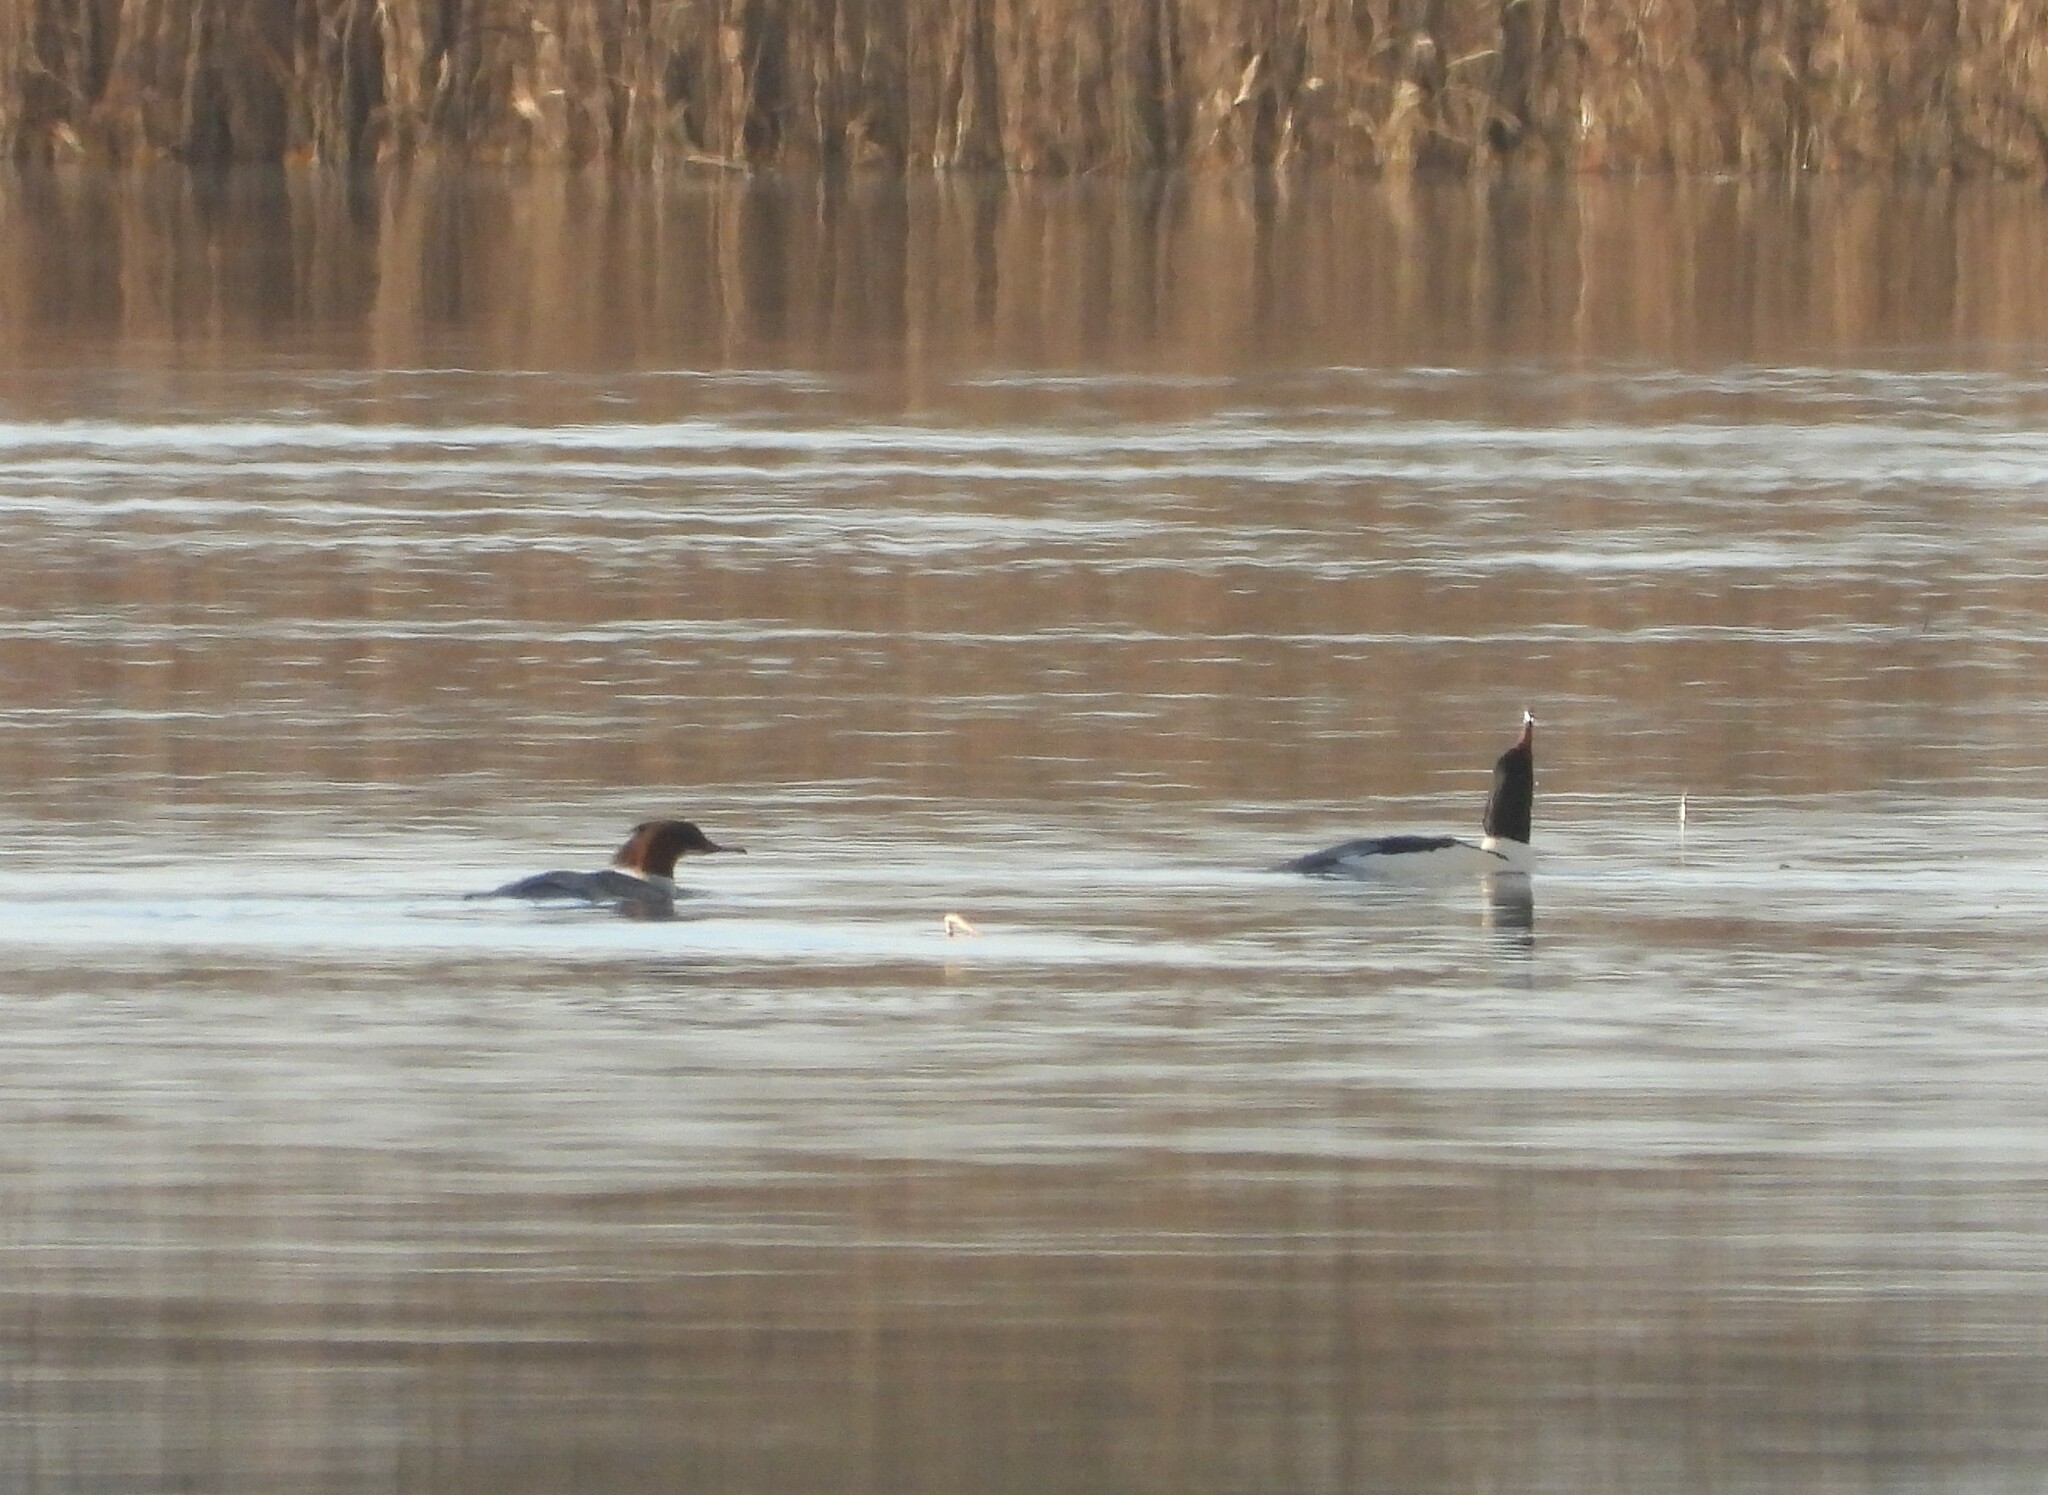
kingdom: Animalia
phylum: Chordata
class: Aves
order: Anseriformes
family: Anatidae
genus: Mergus
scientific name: Mergus merganser
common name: Common merganser
